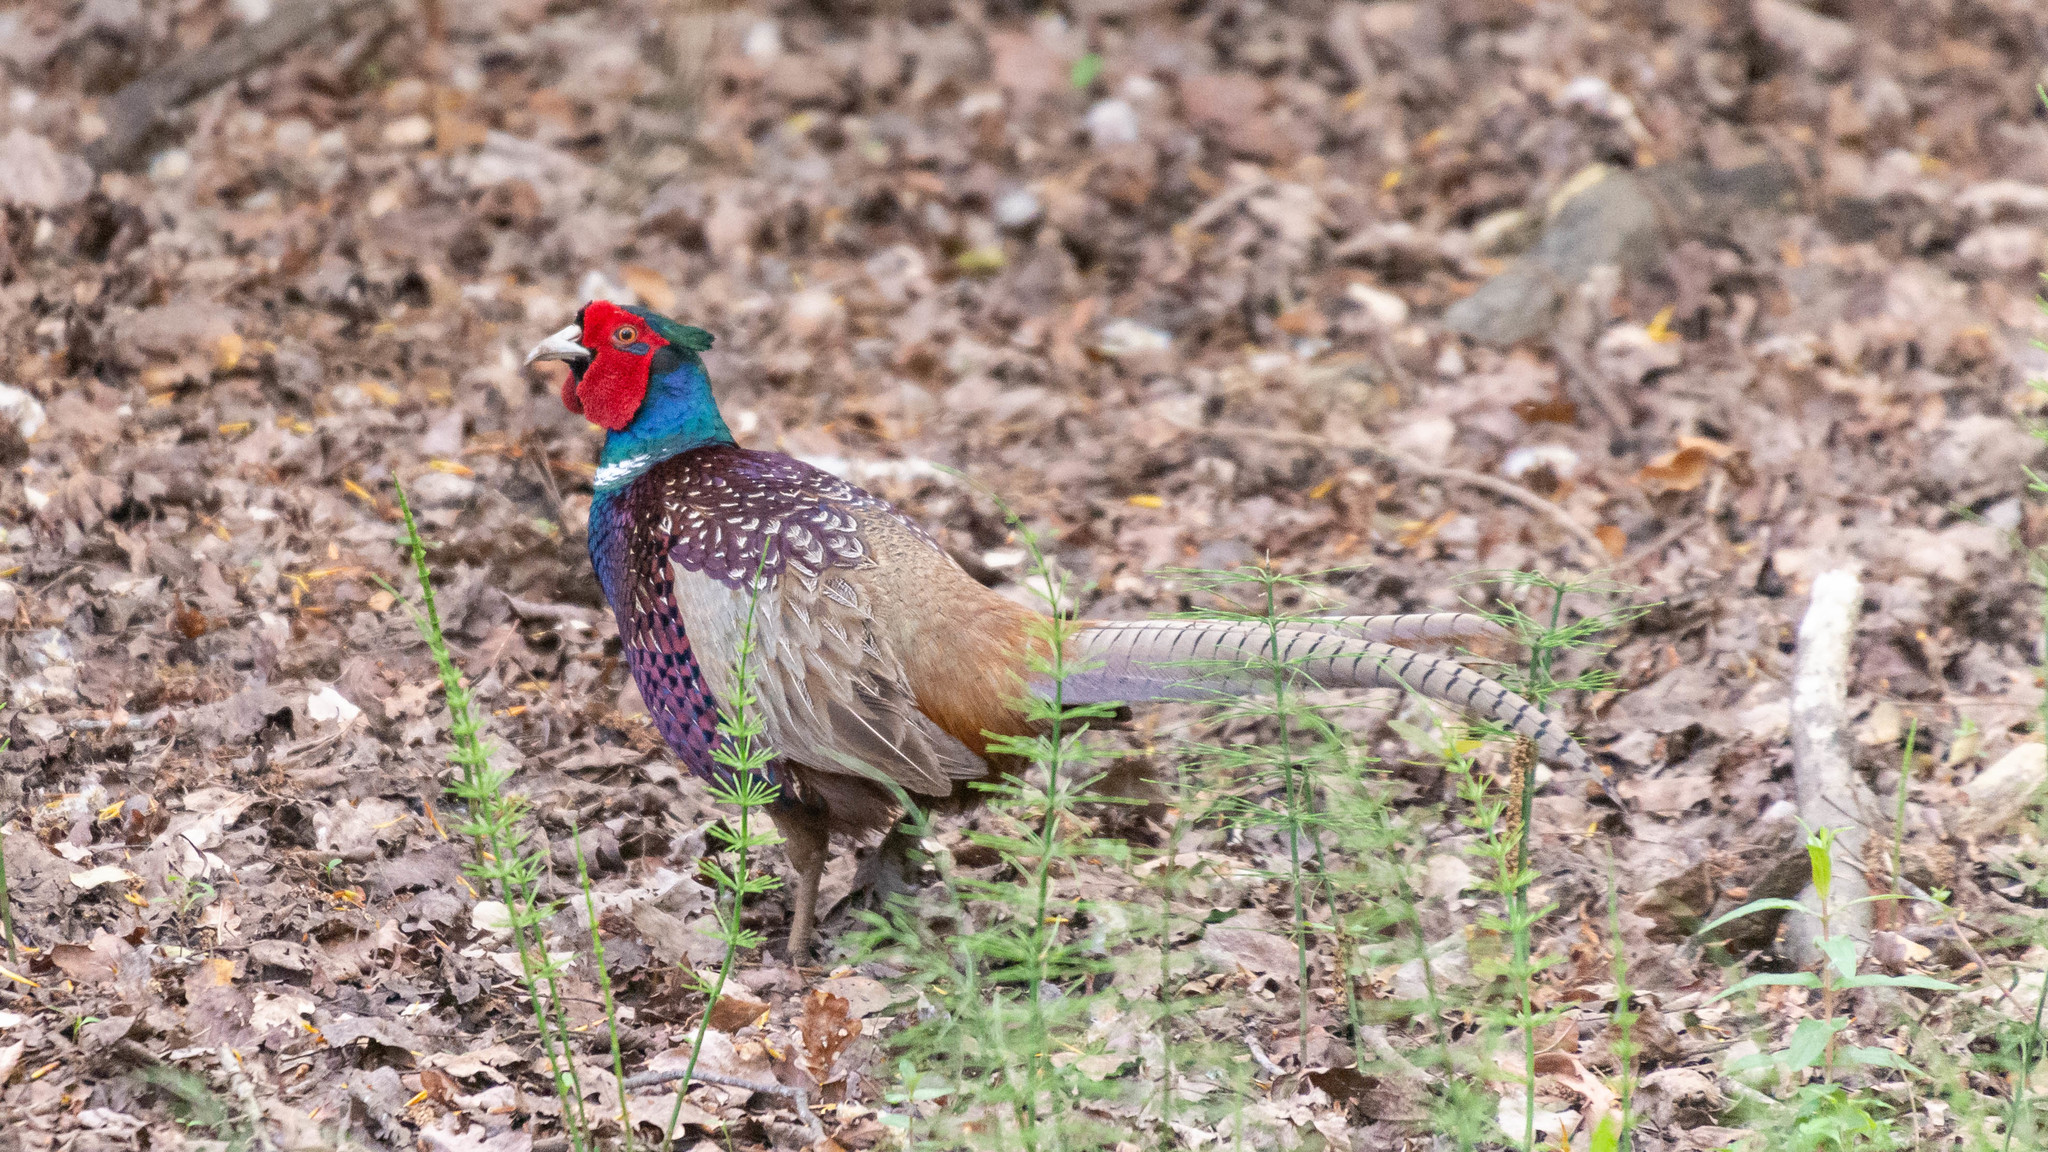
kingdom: Animalia
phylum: Chordata
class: Aves
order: Galliformes
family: Phasianidae
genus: Phasianus
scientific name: Phasianus colchicus
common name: Common pheasant
